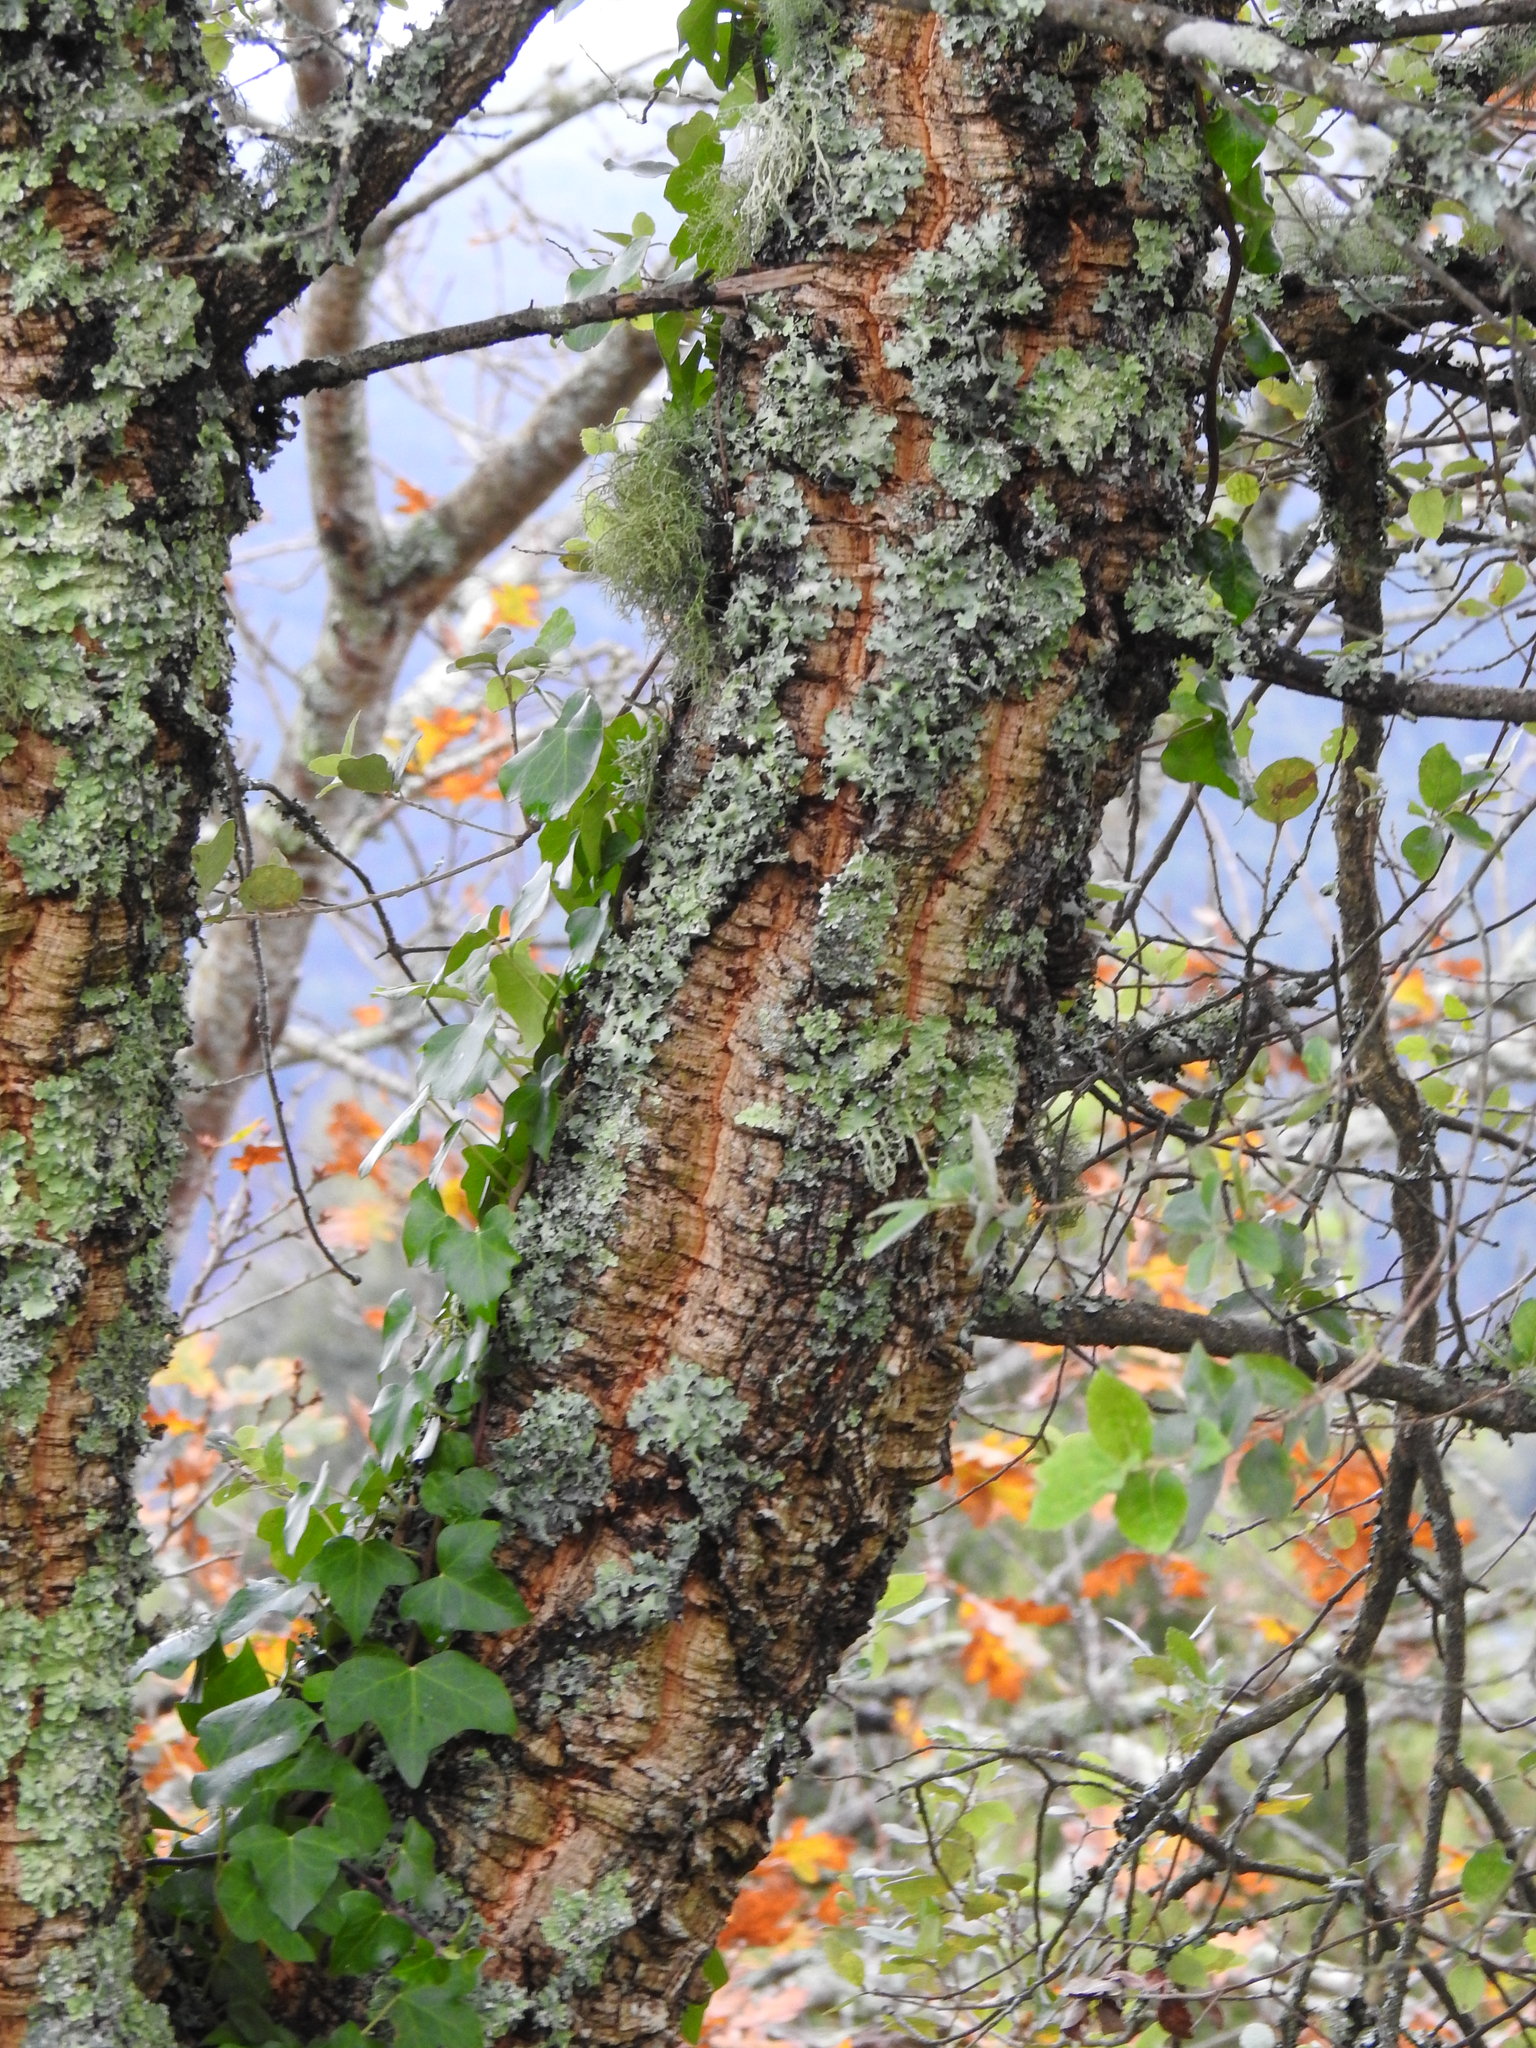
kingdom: Plantae
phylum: Tracheophyta
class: Magnoliopsida
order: Fagales
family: Fagaceae
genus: Quercus
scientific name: Quercus suber
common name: Cork oak
